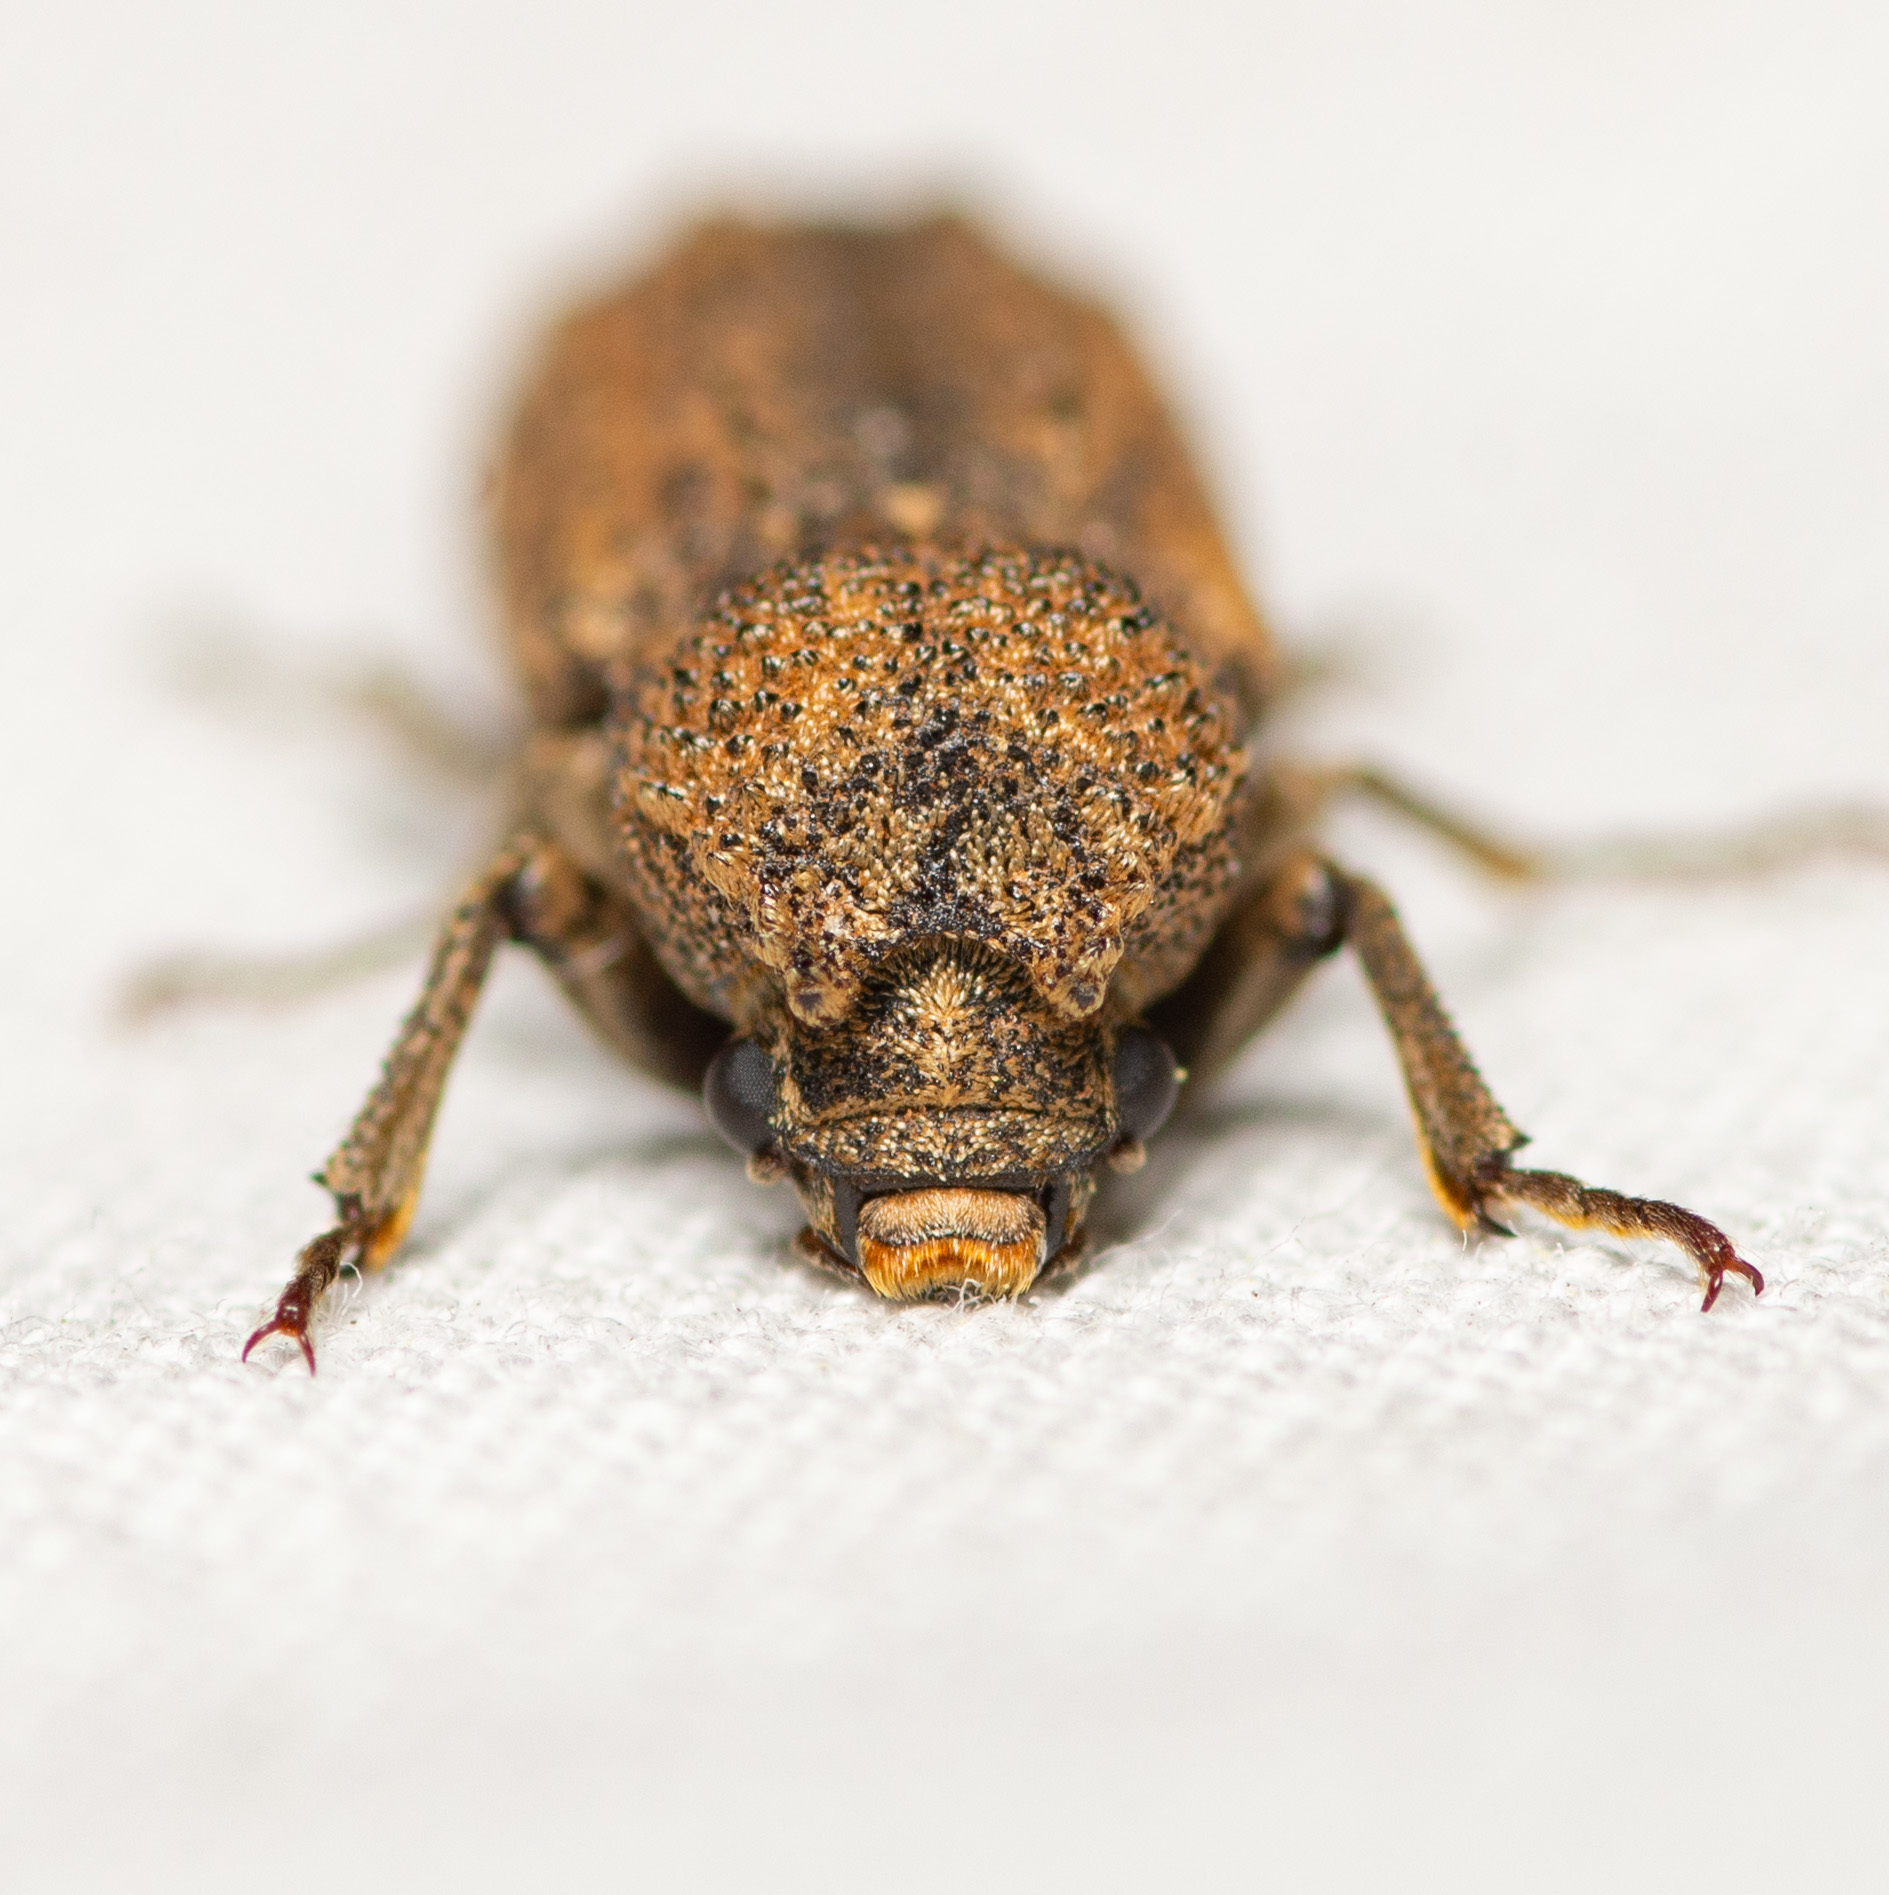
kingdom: Animalia
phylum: Arthropoda
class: Insecta
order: Coleoptera
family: Bostrichidae
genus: Lichenophanes
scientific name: Lichenophanes bicornis
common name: Two-horned powder-post beetle
